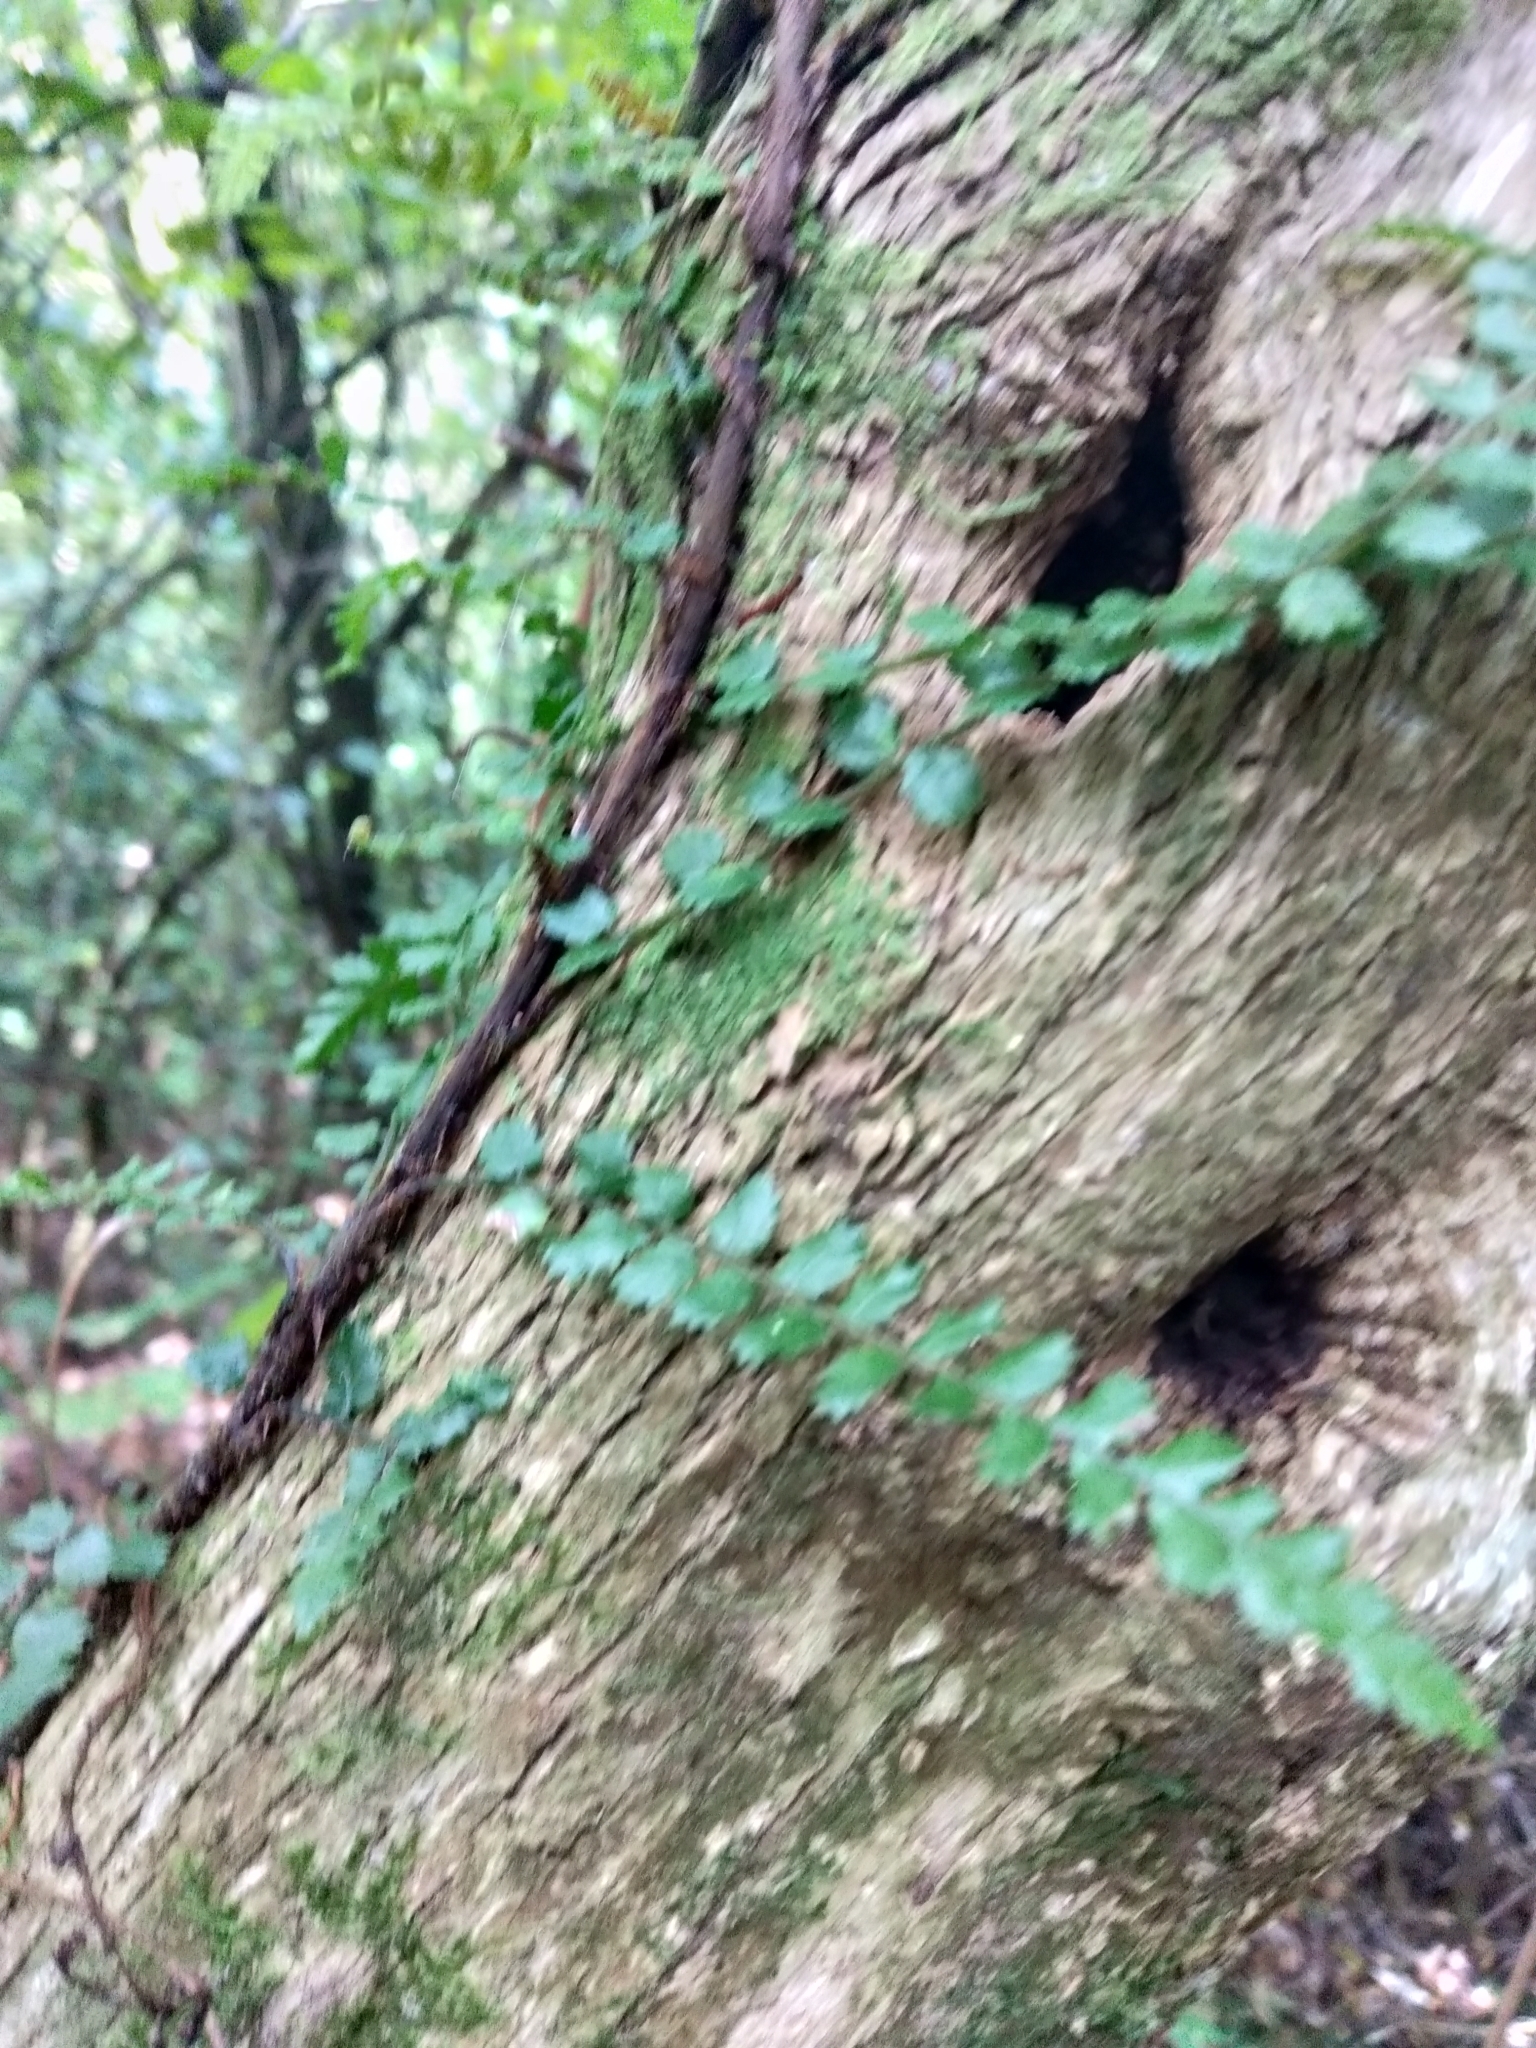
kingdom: Plantae
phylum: Tracheophyta
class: Polypodiopsida
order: Polypodiales
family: Blechnaceae
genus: Icarus
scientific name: Icarus filiformis
